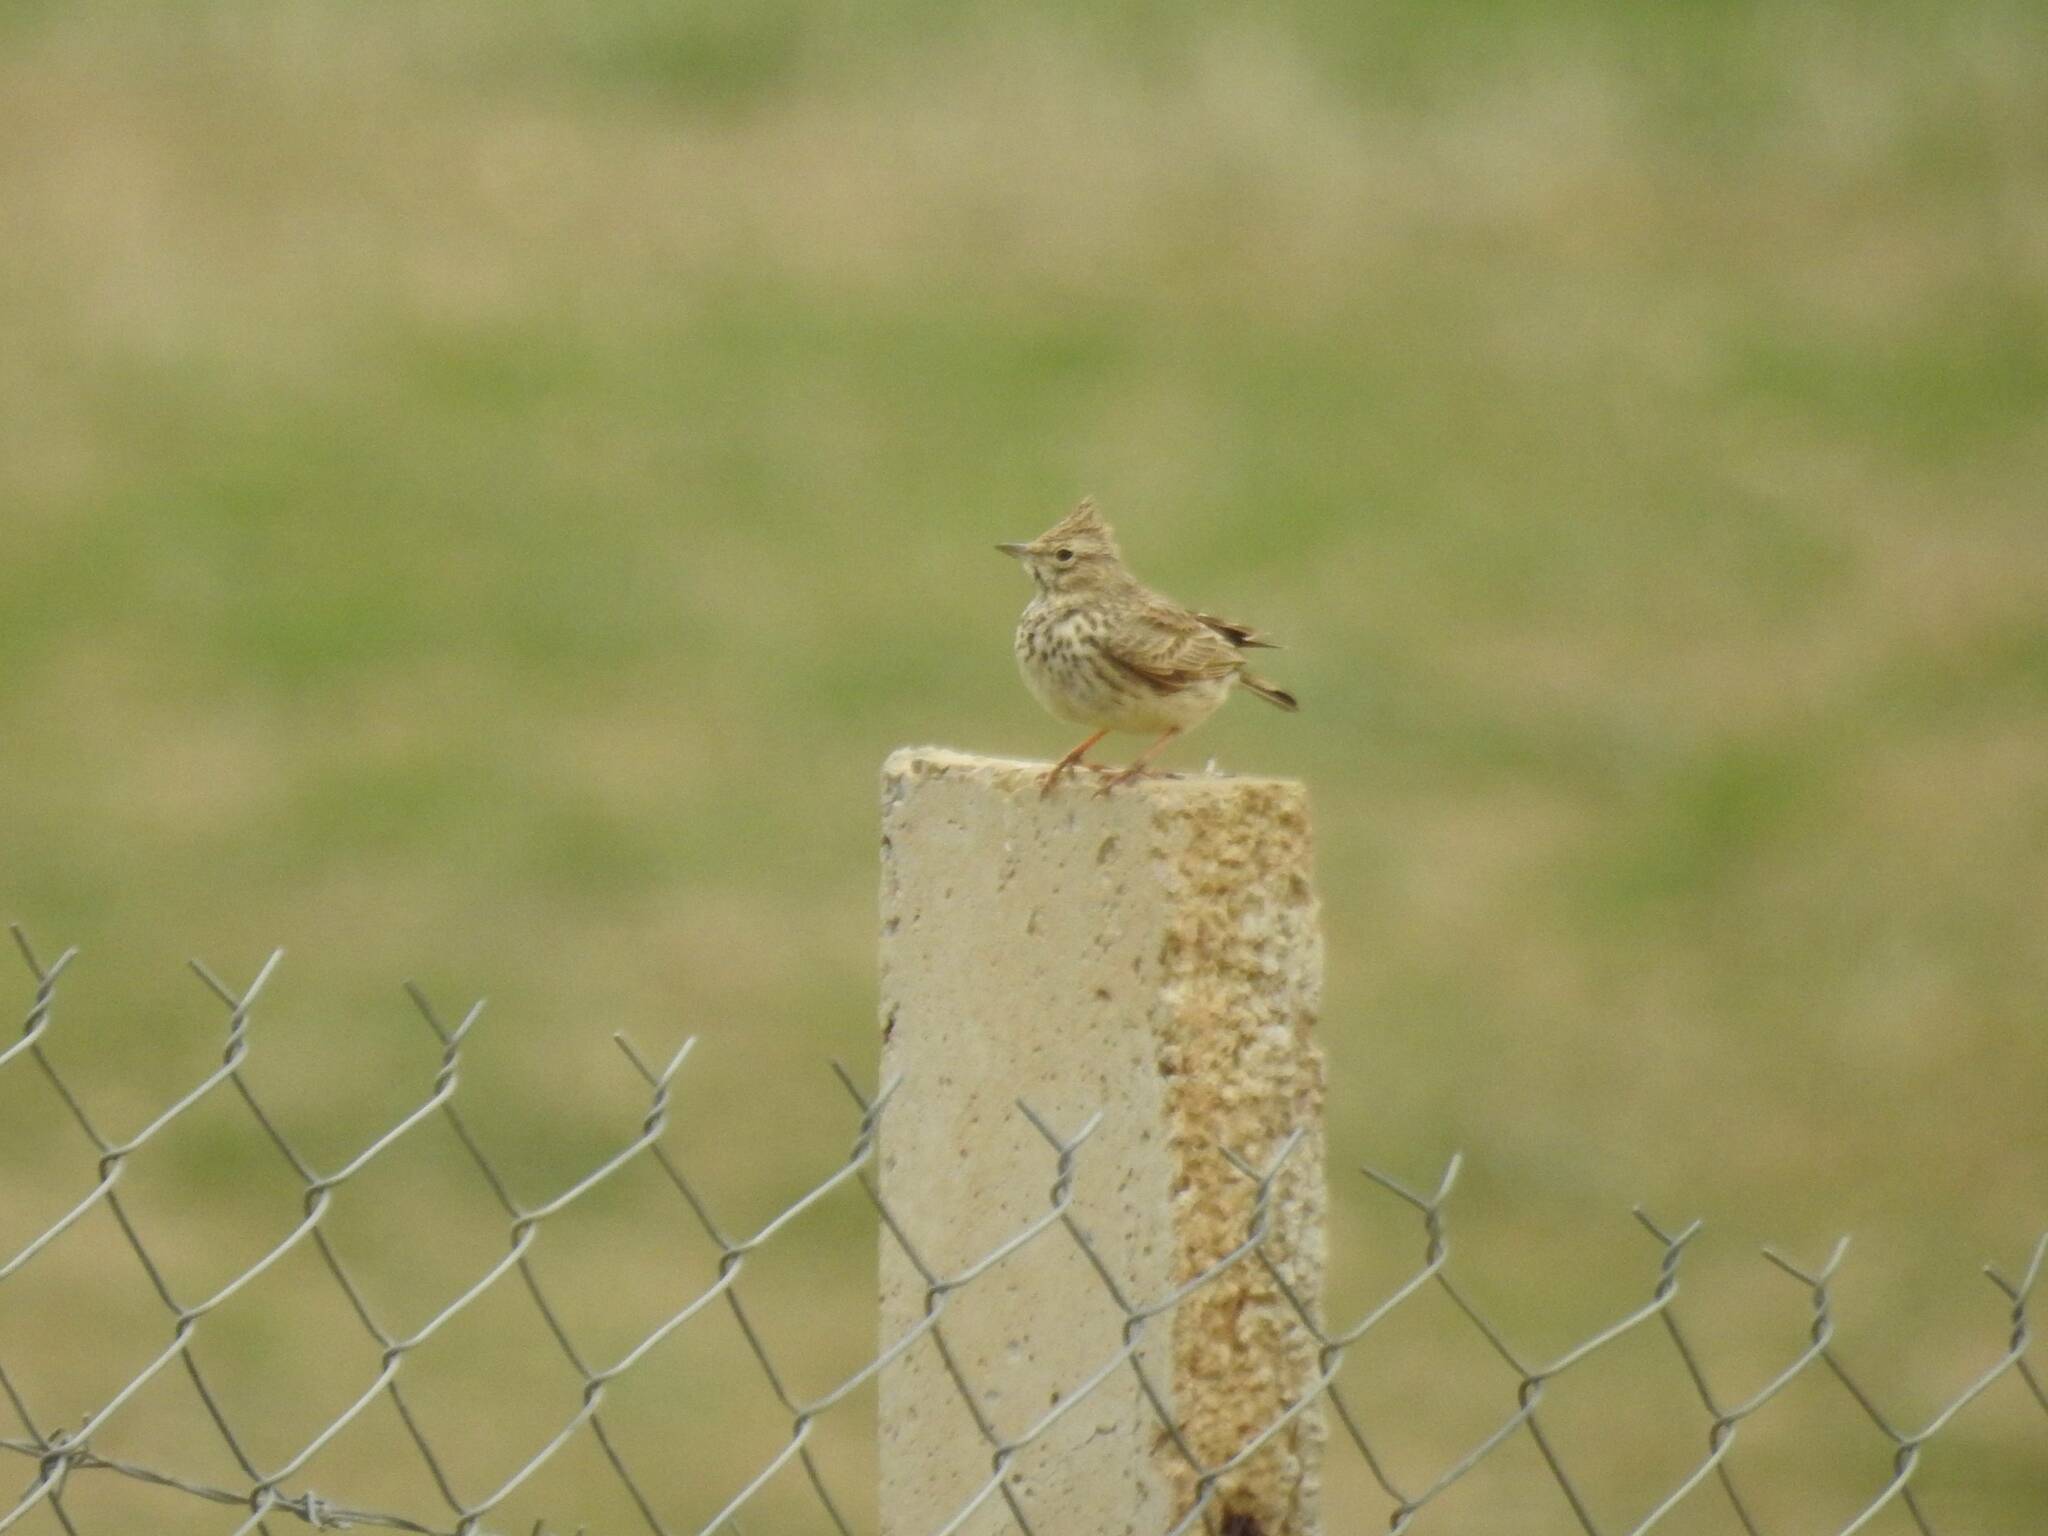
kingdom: Animalia
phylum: Chordata
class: Aves
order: Passeriformes
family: Alaudidae
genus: Galerida
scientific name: Galerida theklae
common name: Thekla lark
